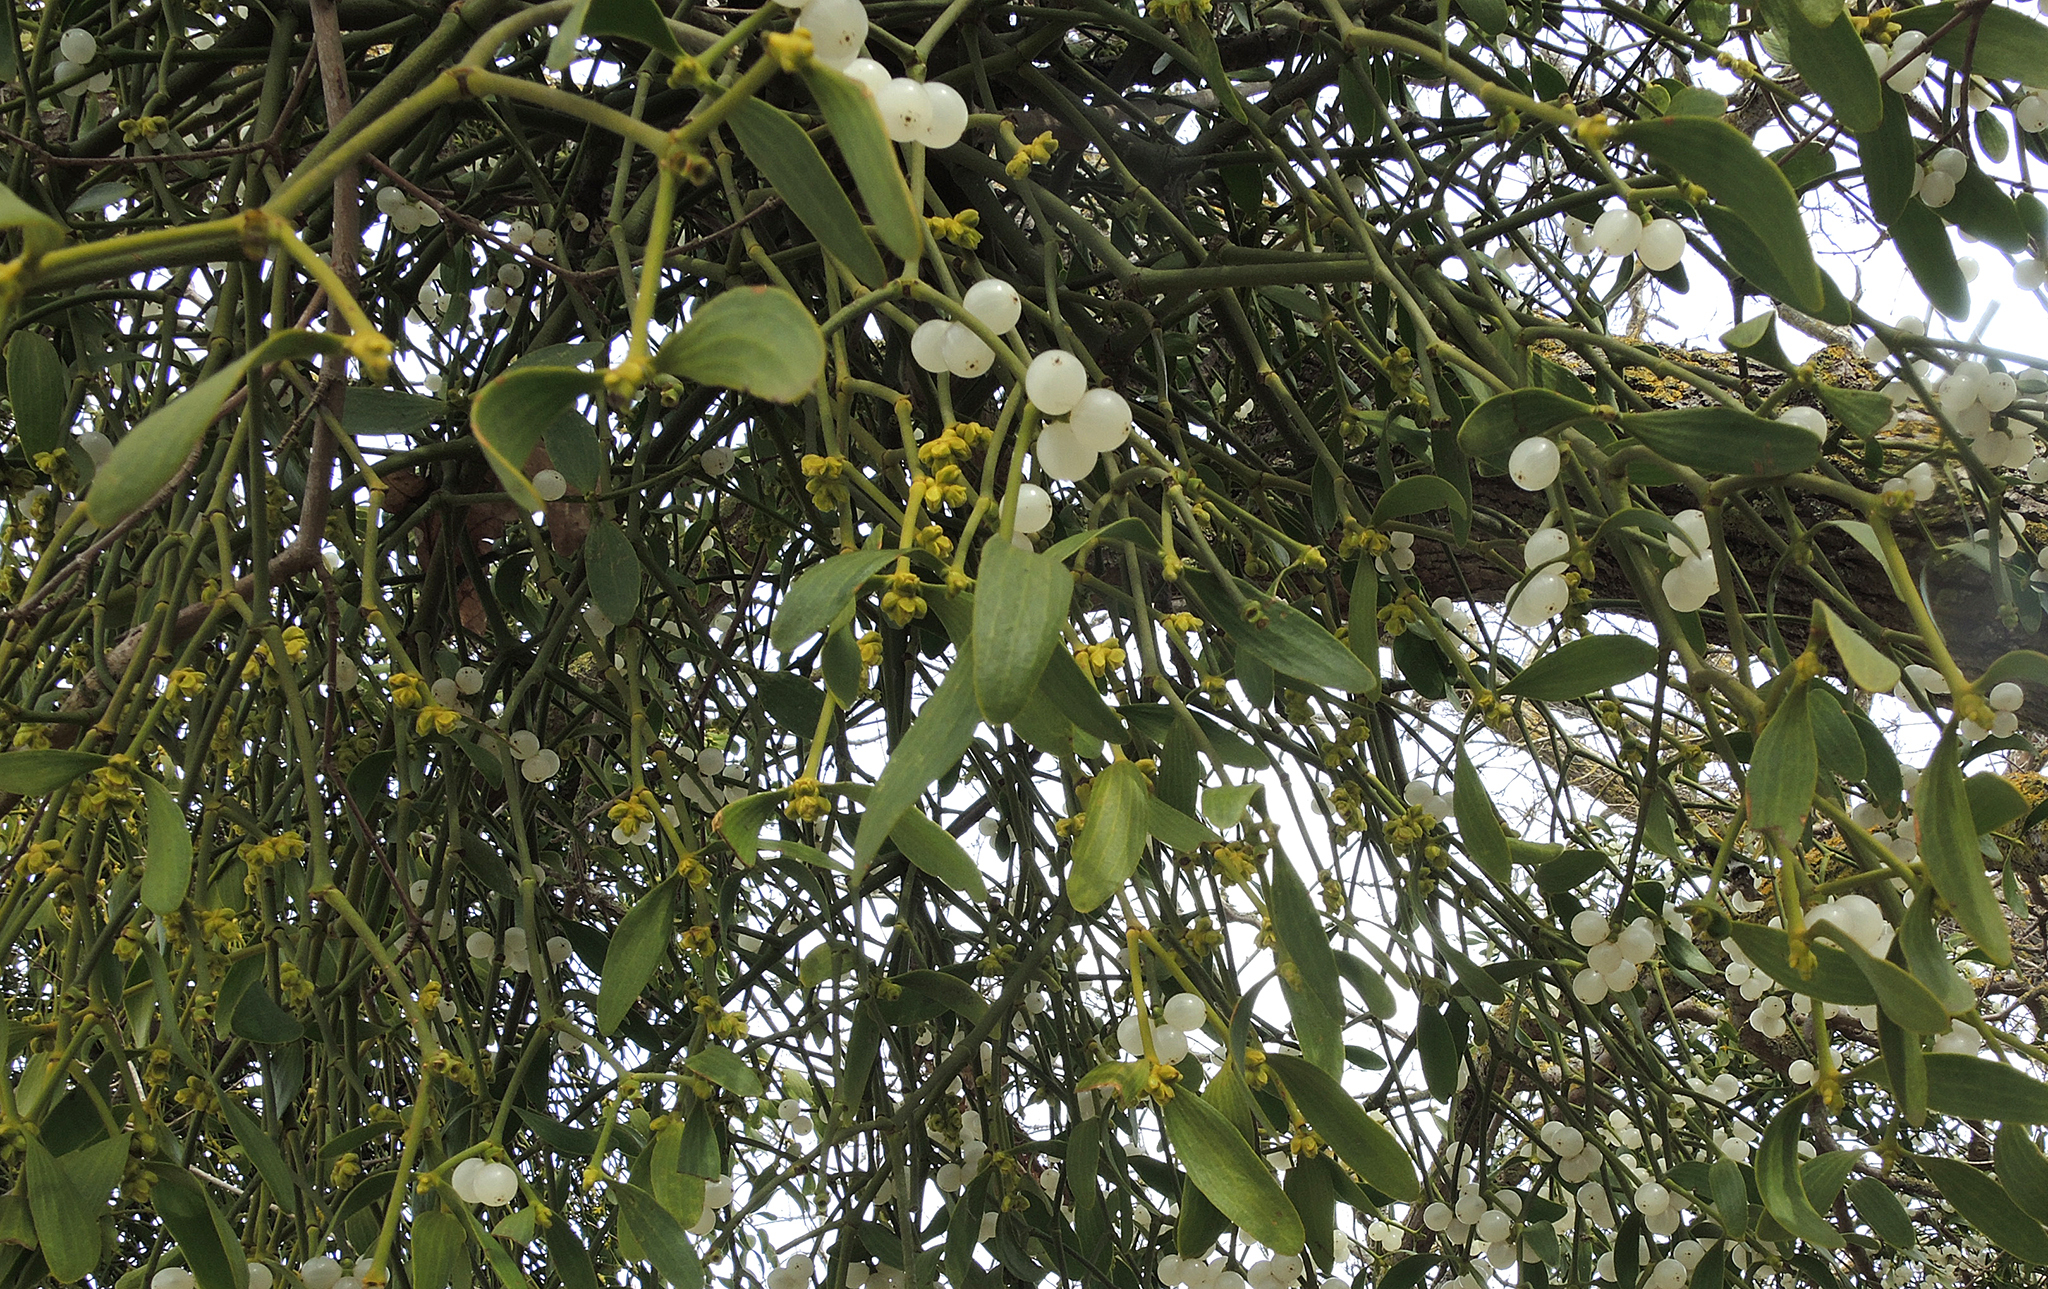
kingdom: Plantae
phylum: Tracheophyta
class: Magnoliopsida
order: Santalales
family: Viscaceae
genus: Viscum
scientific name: Viscum album
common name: Mistletoe
